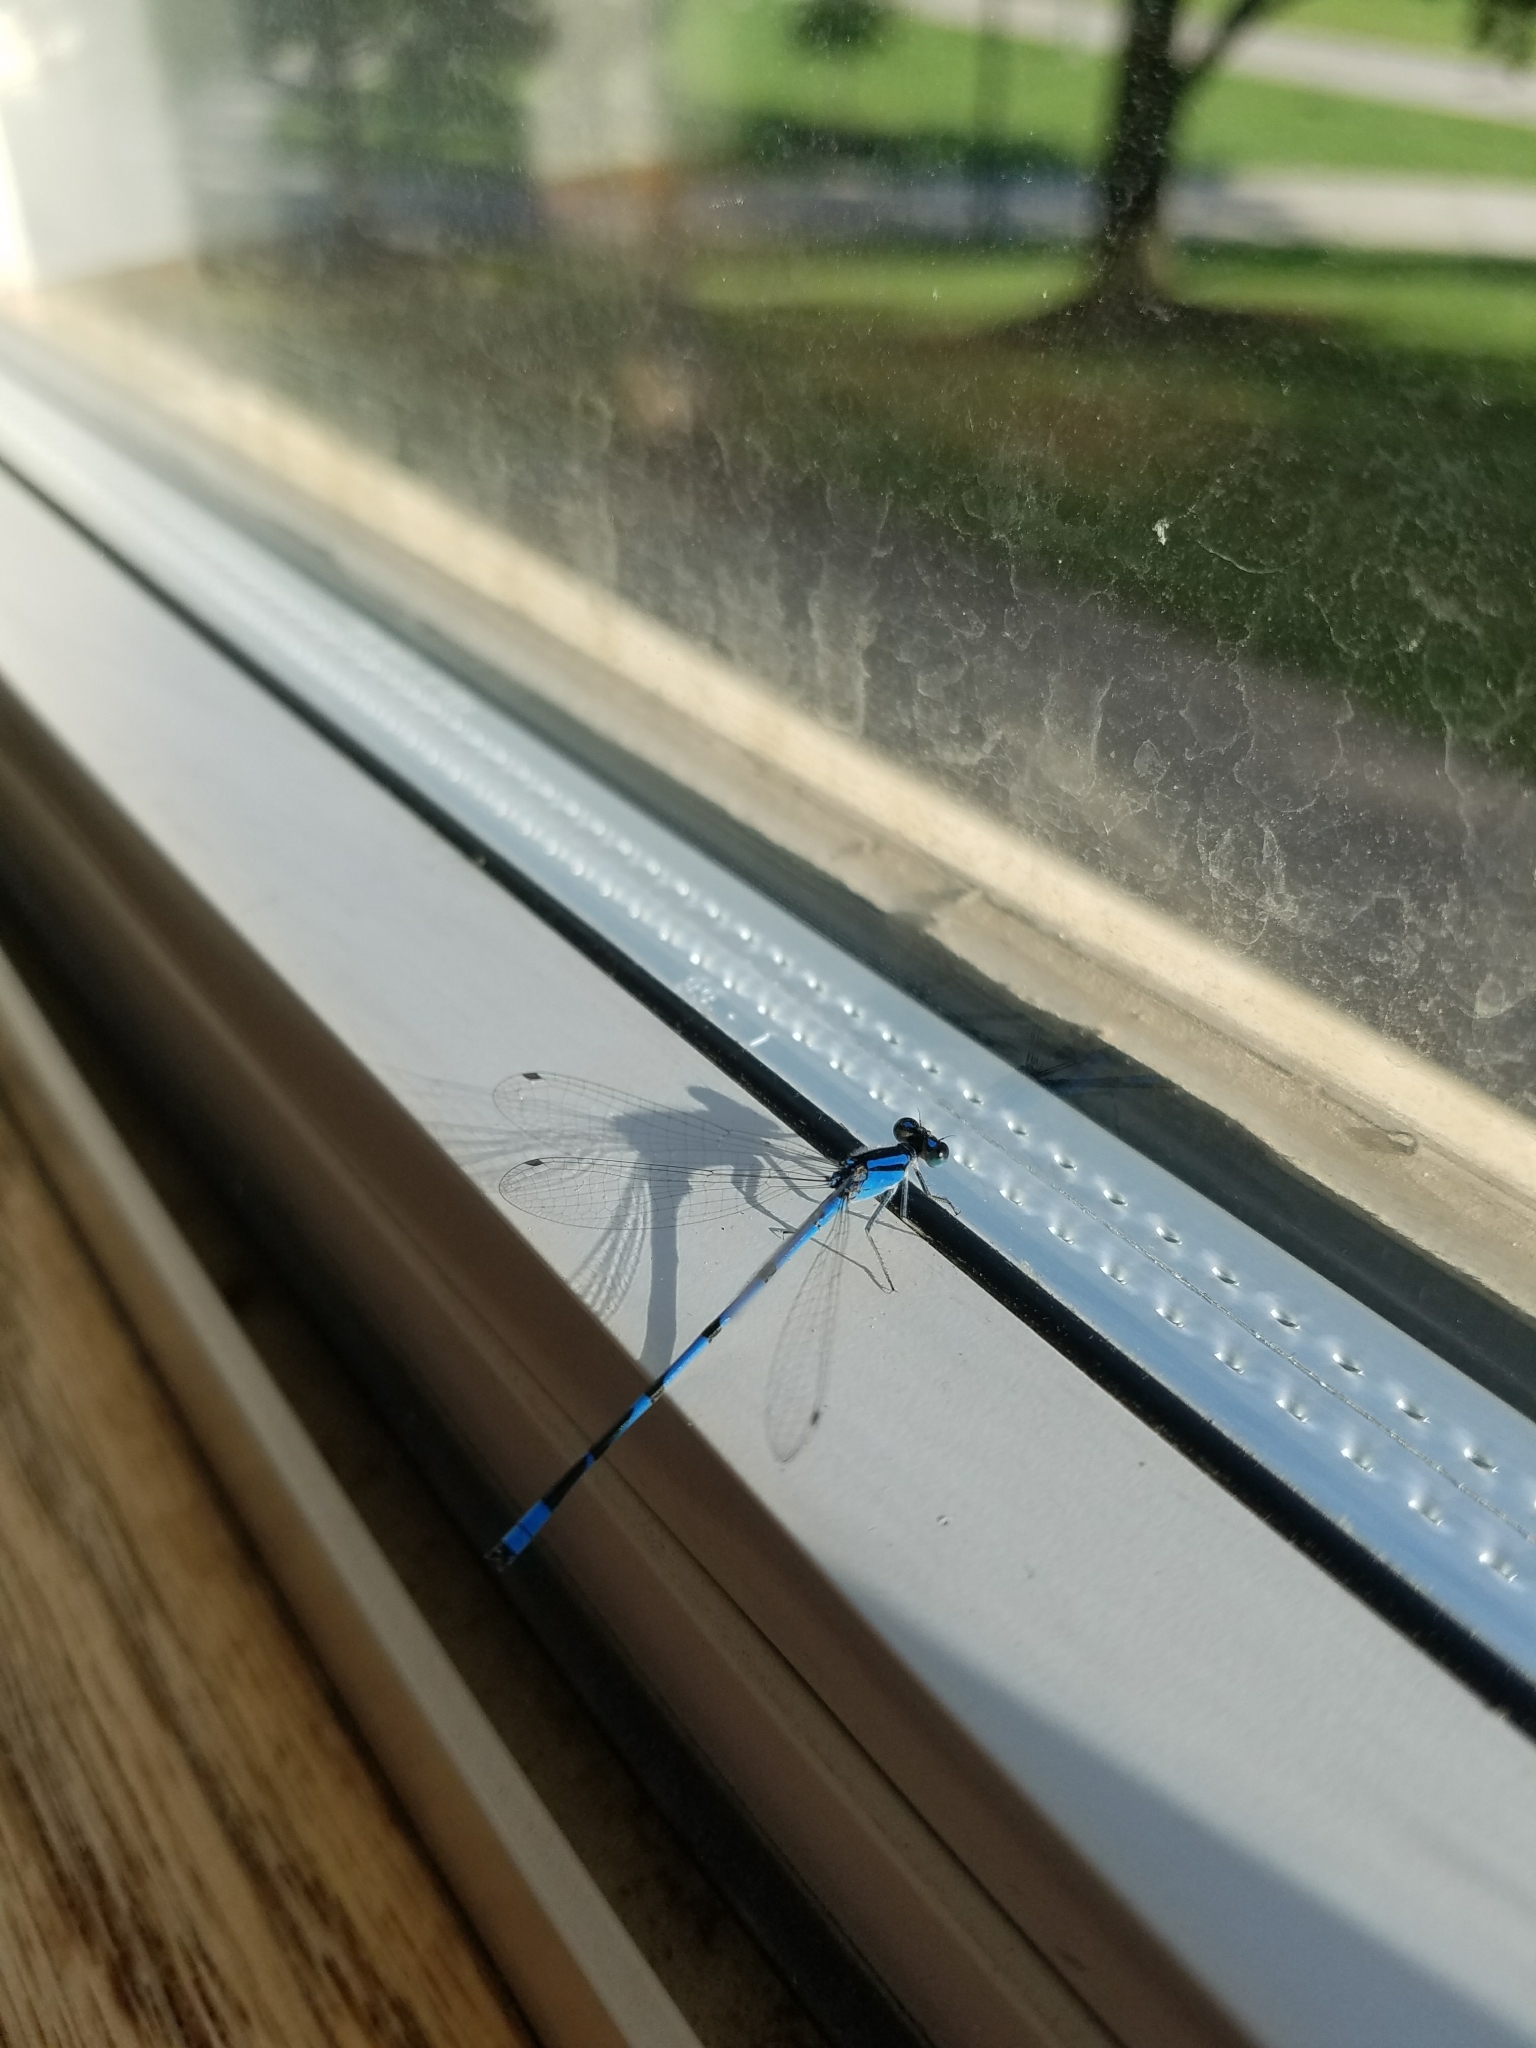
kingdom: Animalia
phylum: Arthropoda
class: Insecta
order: Odonata
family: Coenagrionidae
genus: Enallagma
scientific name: Enallagma civile
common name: Damselfly
